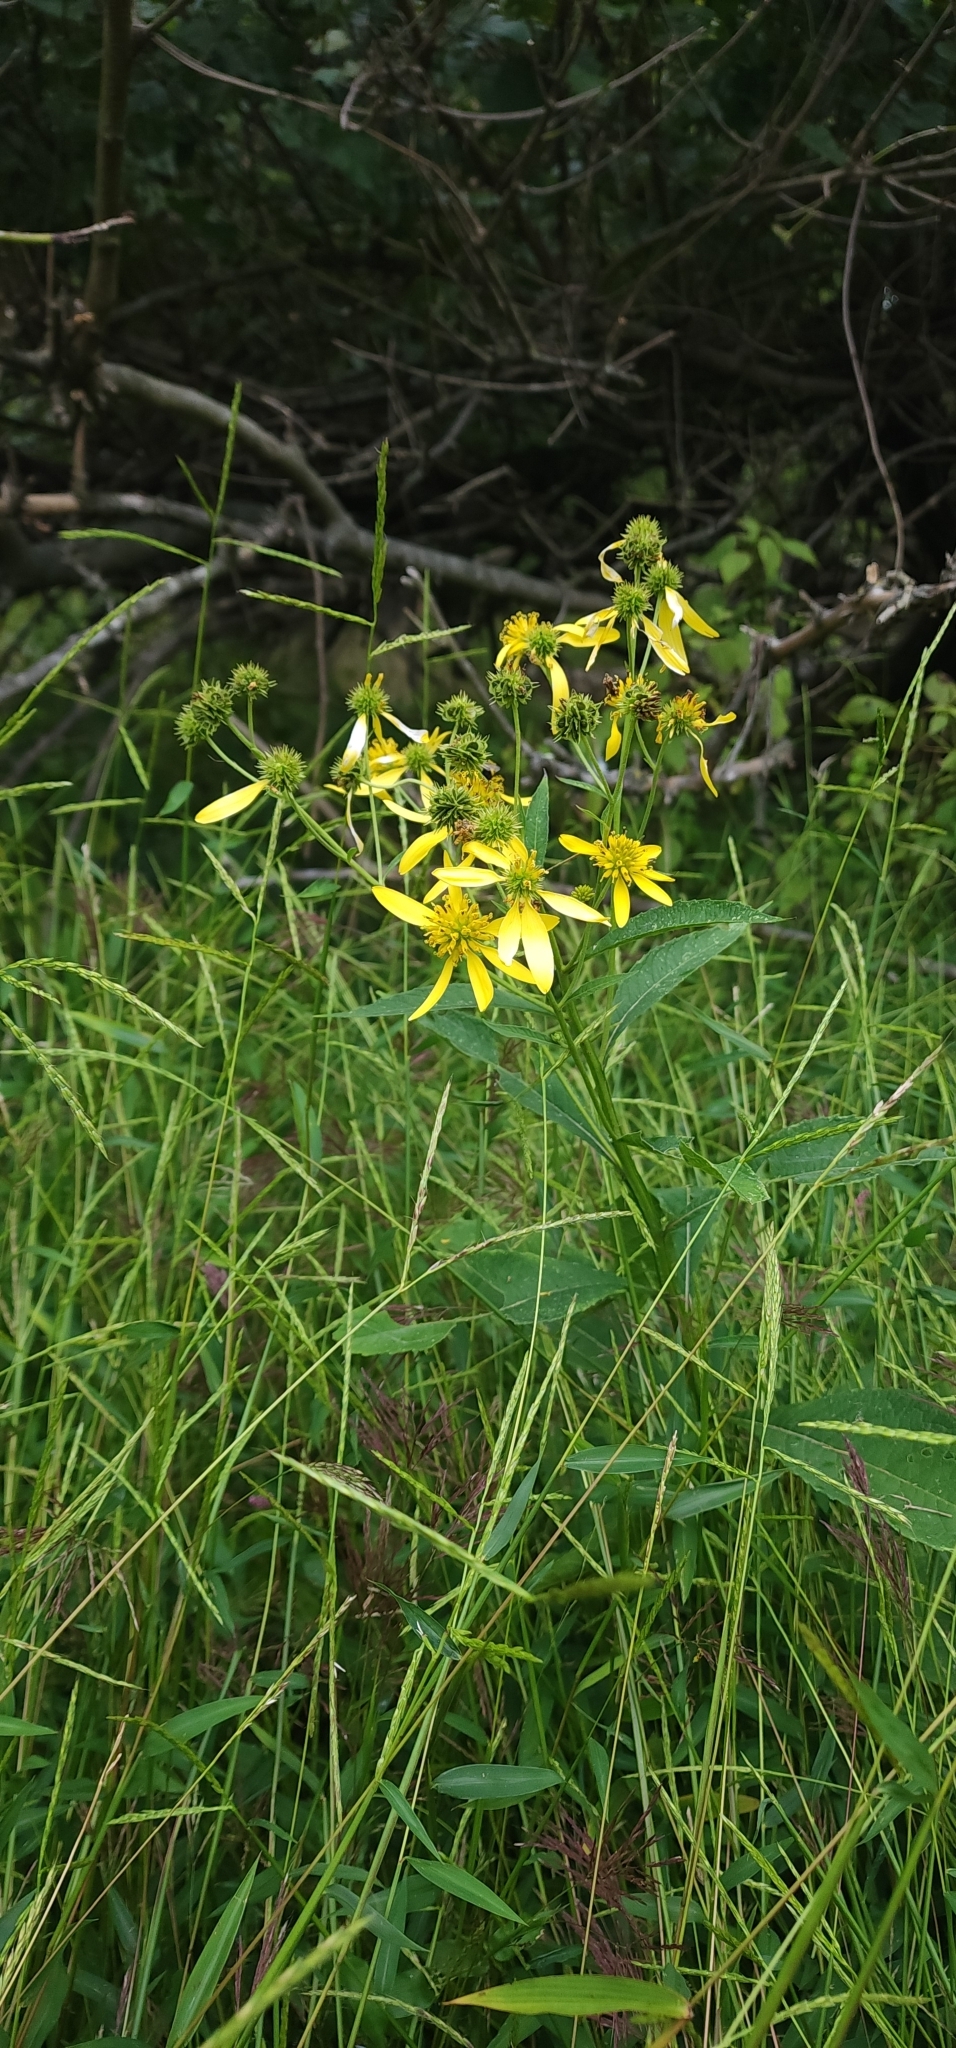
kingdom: Plantae
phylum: Tracheophyta
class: Magnoliopsida
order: Asterales
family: Asteraceae
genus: Verbesina
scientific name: Verbesina alternifolia
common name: Wingstem
